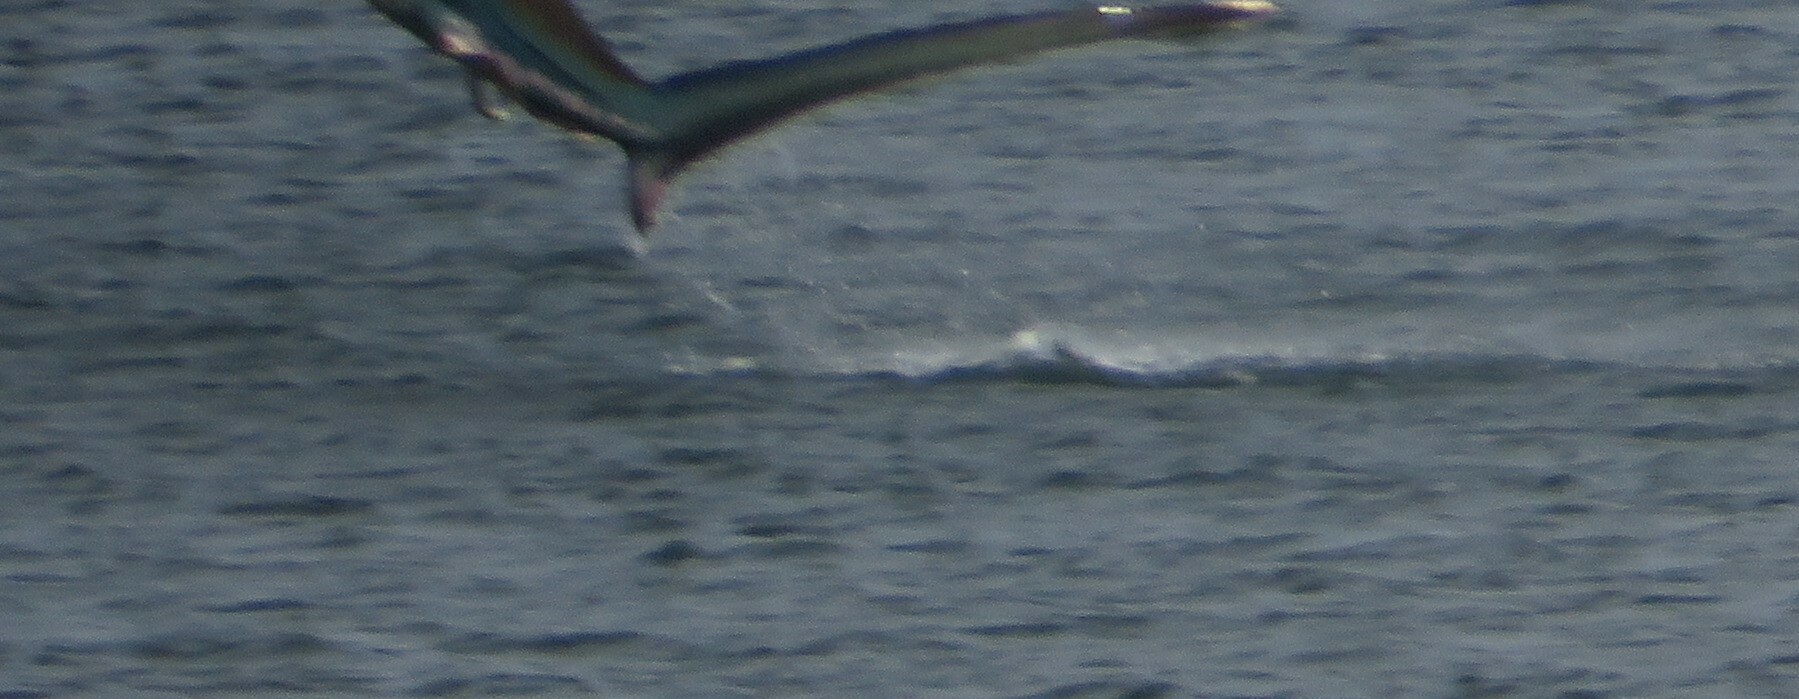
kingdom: Animalia
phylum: Chordata
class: Elasmobranchii
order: Lamniformes
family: Alopiidae
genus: Alopias
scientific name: Alopias vulpinus
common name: Thresher shark
